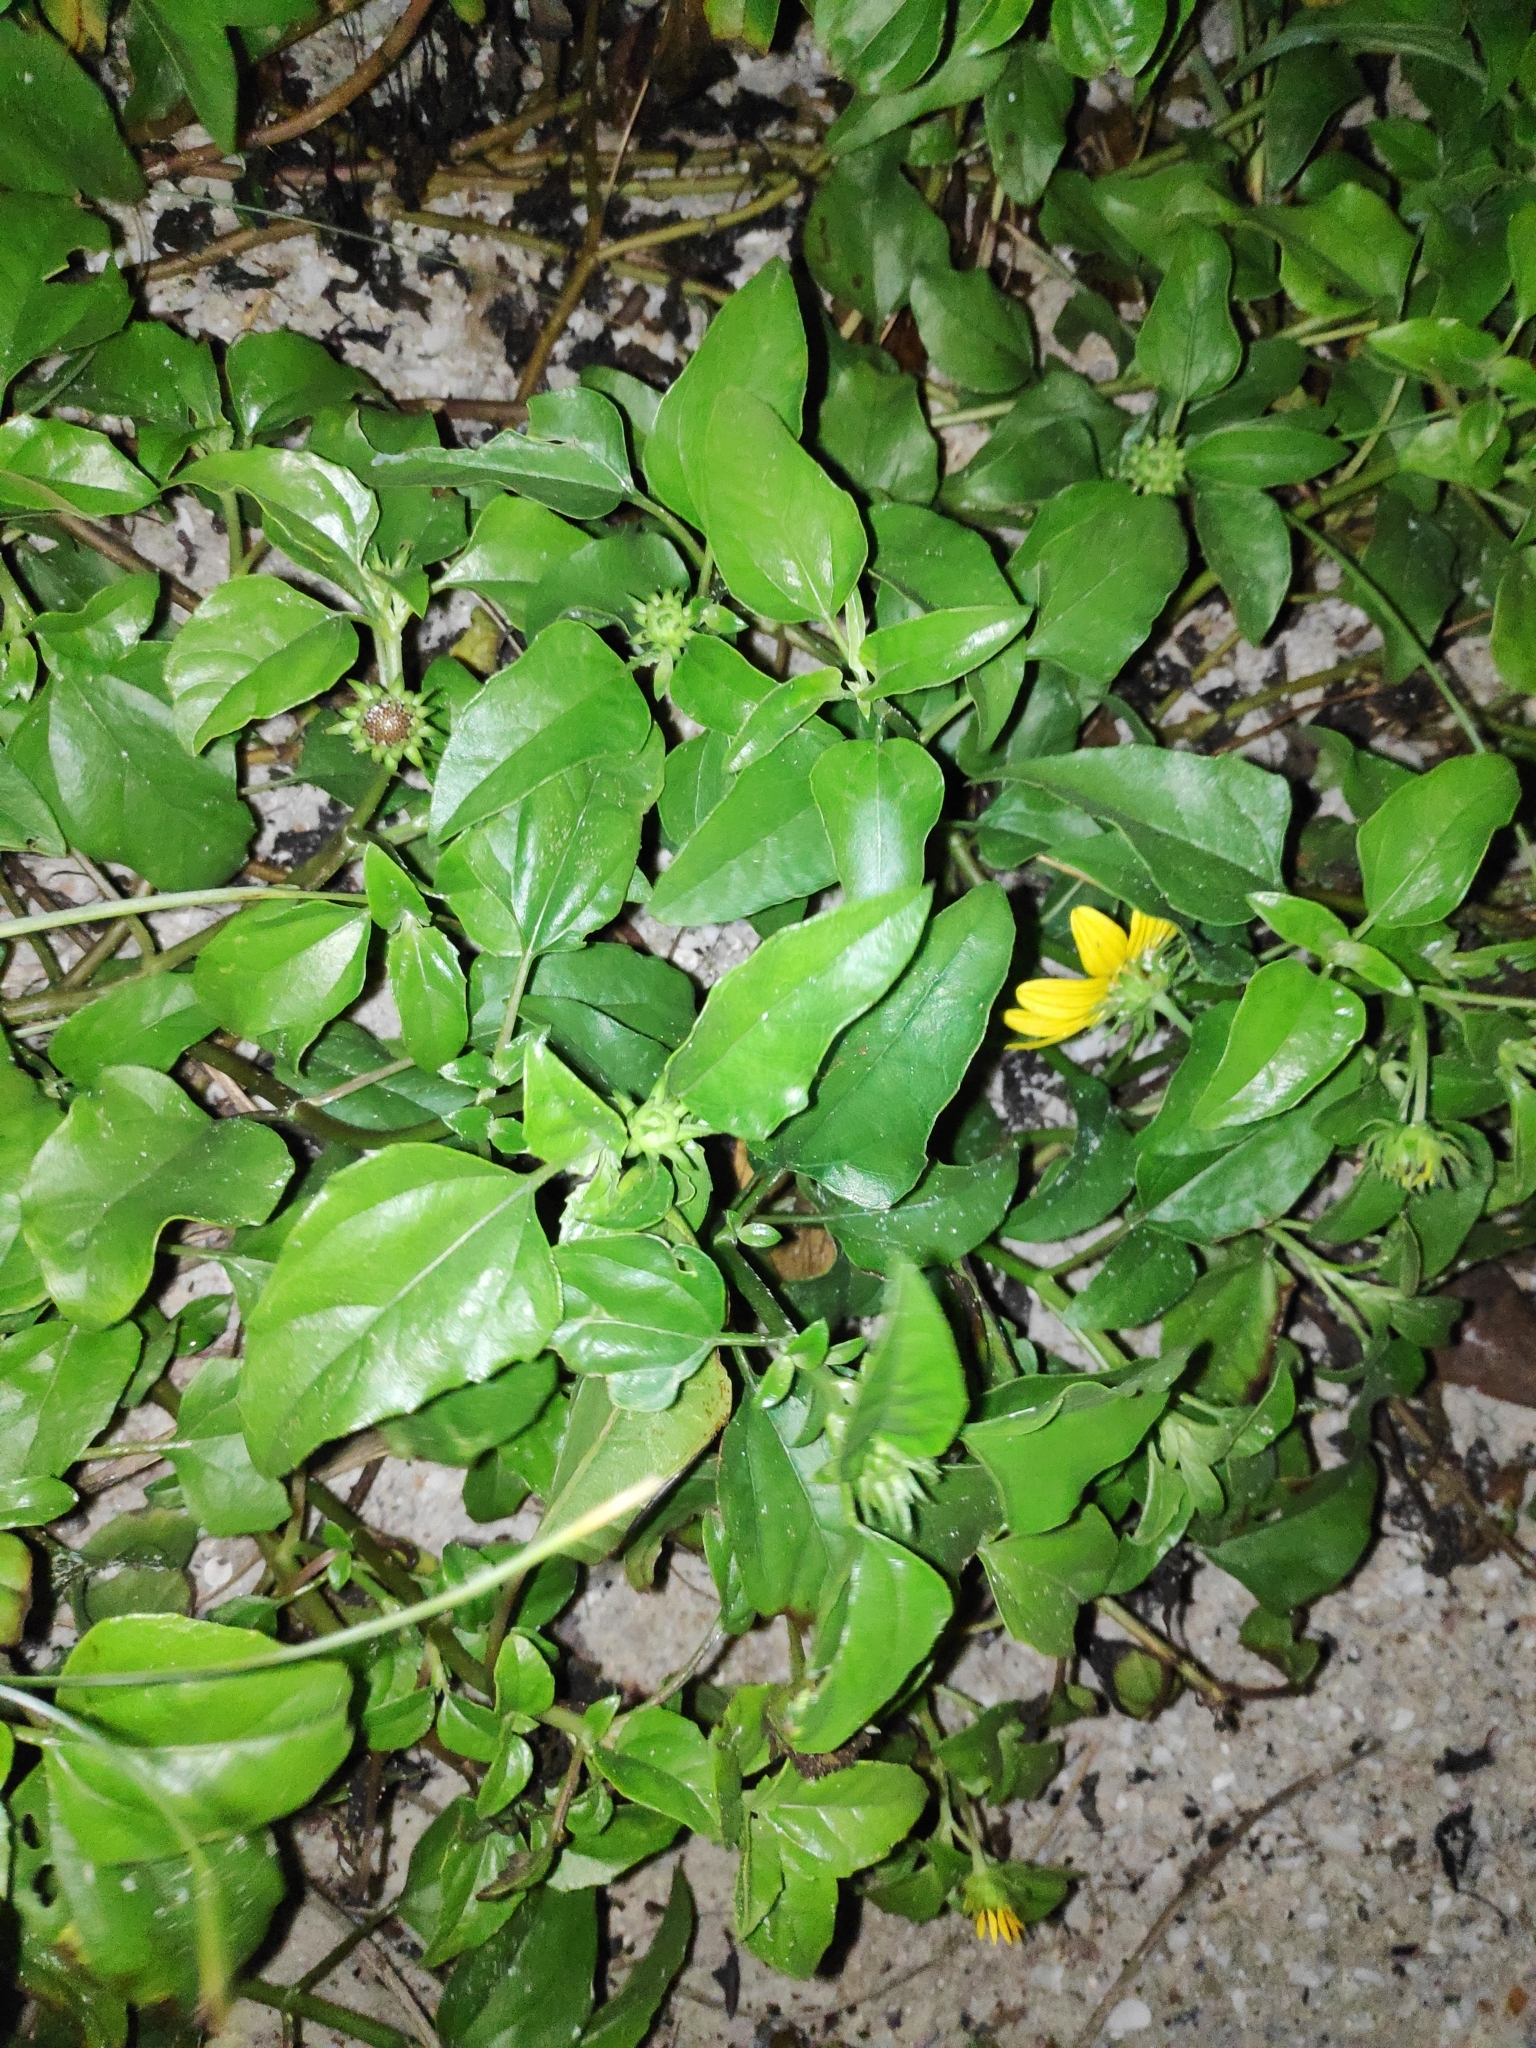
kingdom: Plantae
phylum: Tracheophyta
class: Magnoliopsida
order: Asterales
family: Asteraceae
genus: Helianthus
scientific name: Helianthus debilis
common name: Weak sunflower
